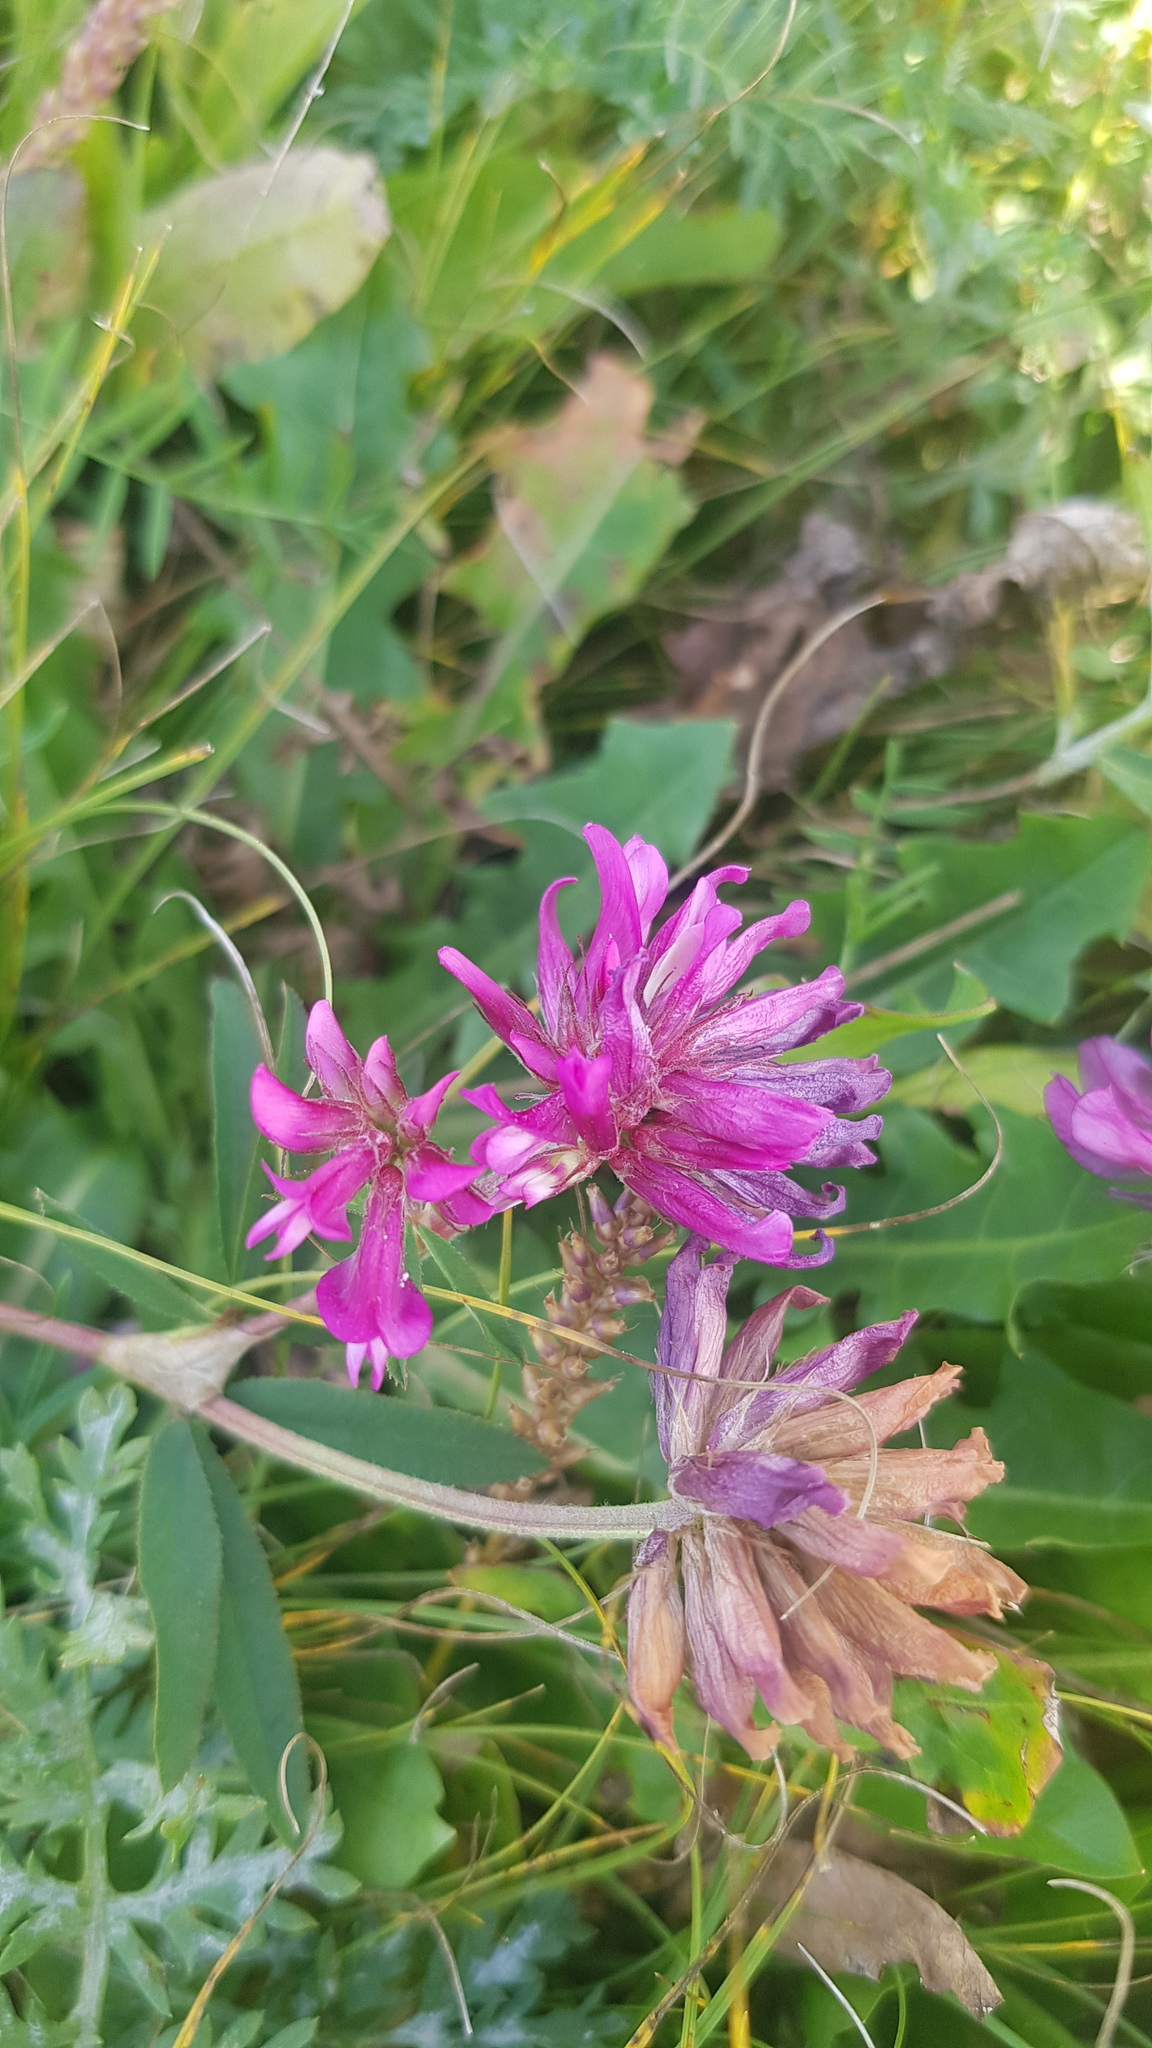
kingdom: Plantae
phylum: Tracheophyta
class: Magnoliopsida
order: Fabales
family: Fabaceae
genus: Trifolium
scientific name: Trifolium lupinaster
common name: Lupine clover
